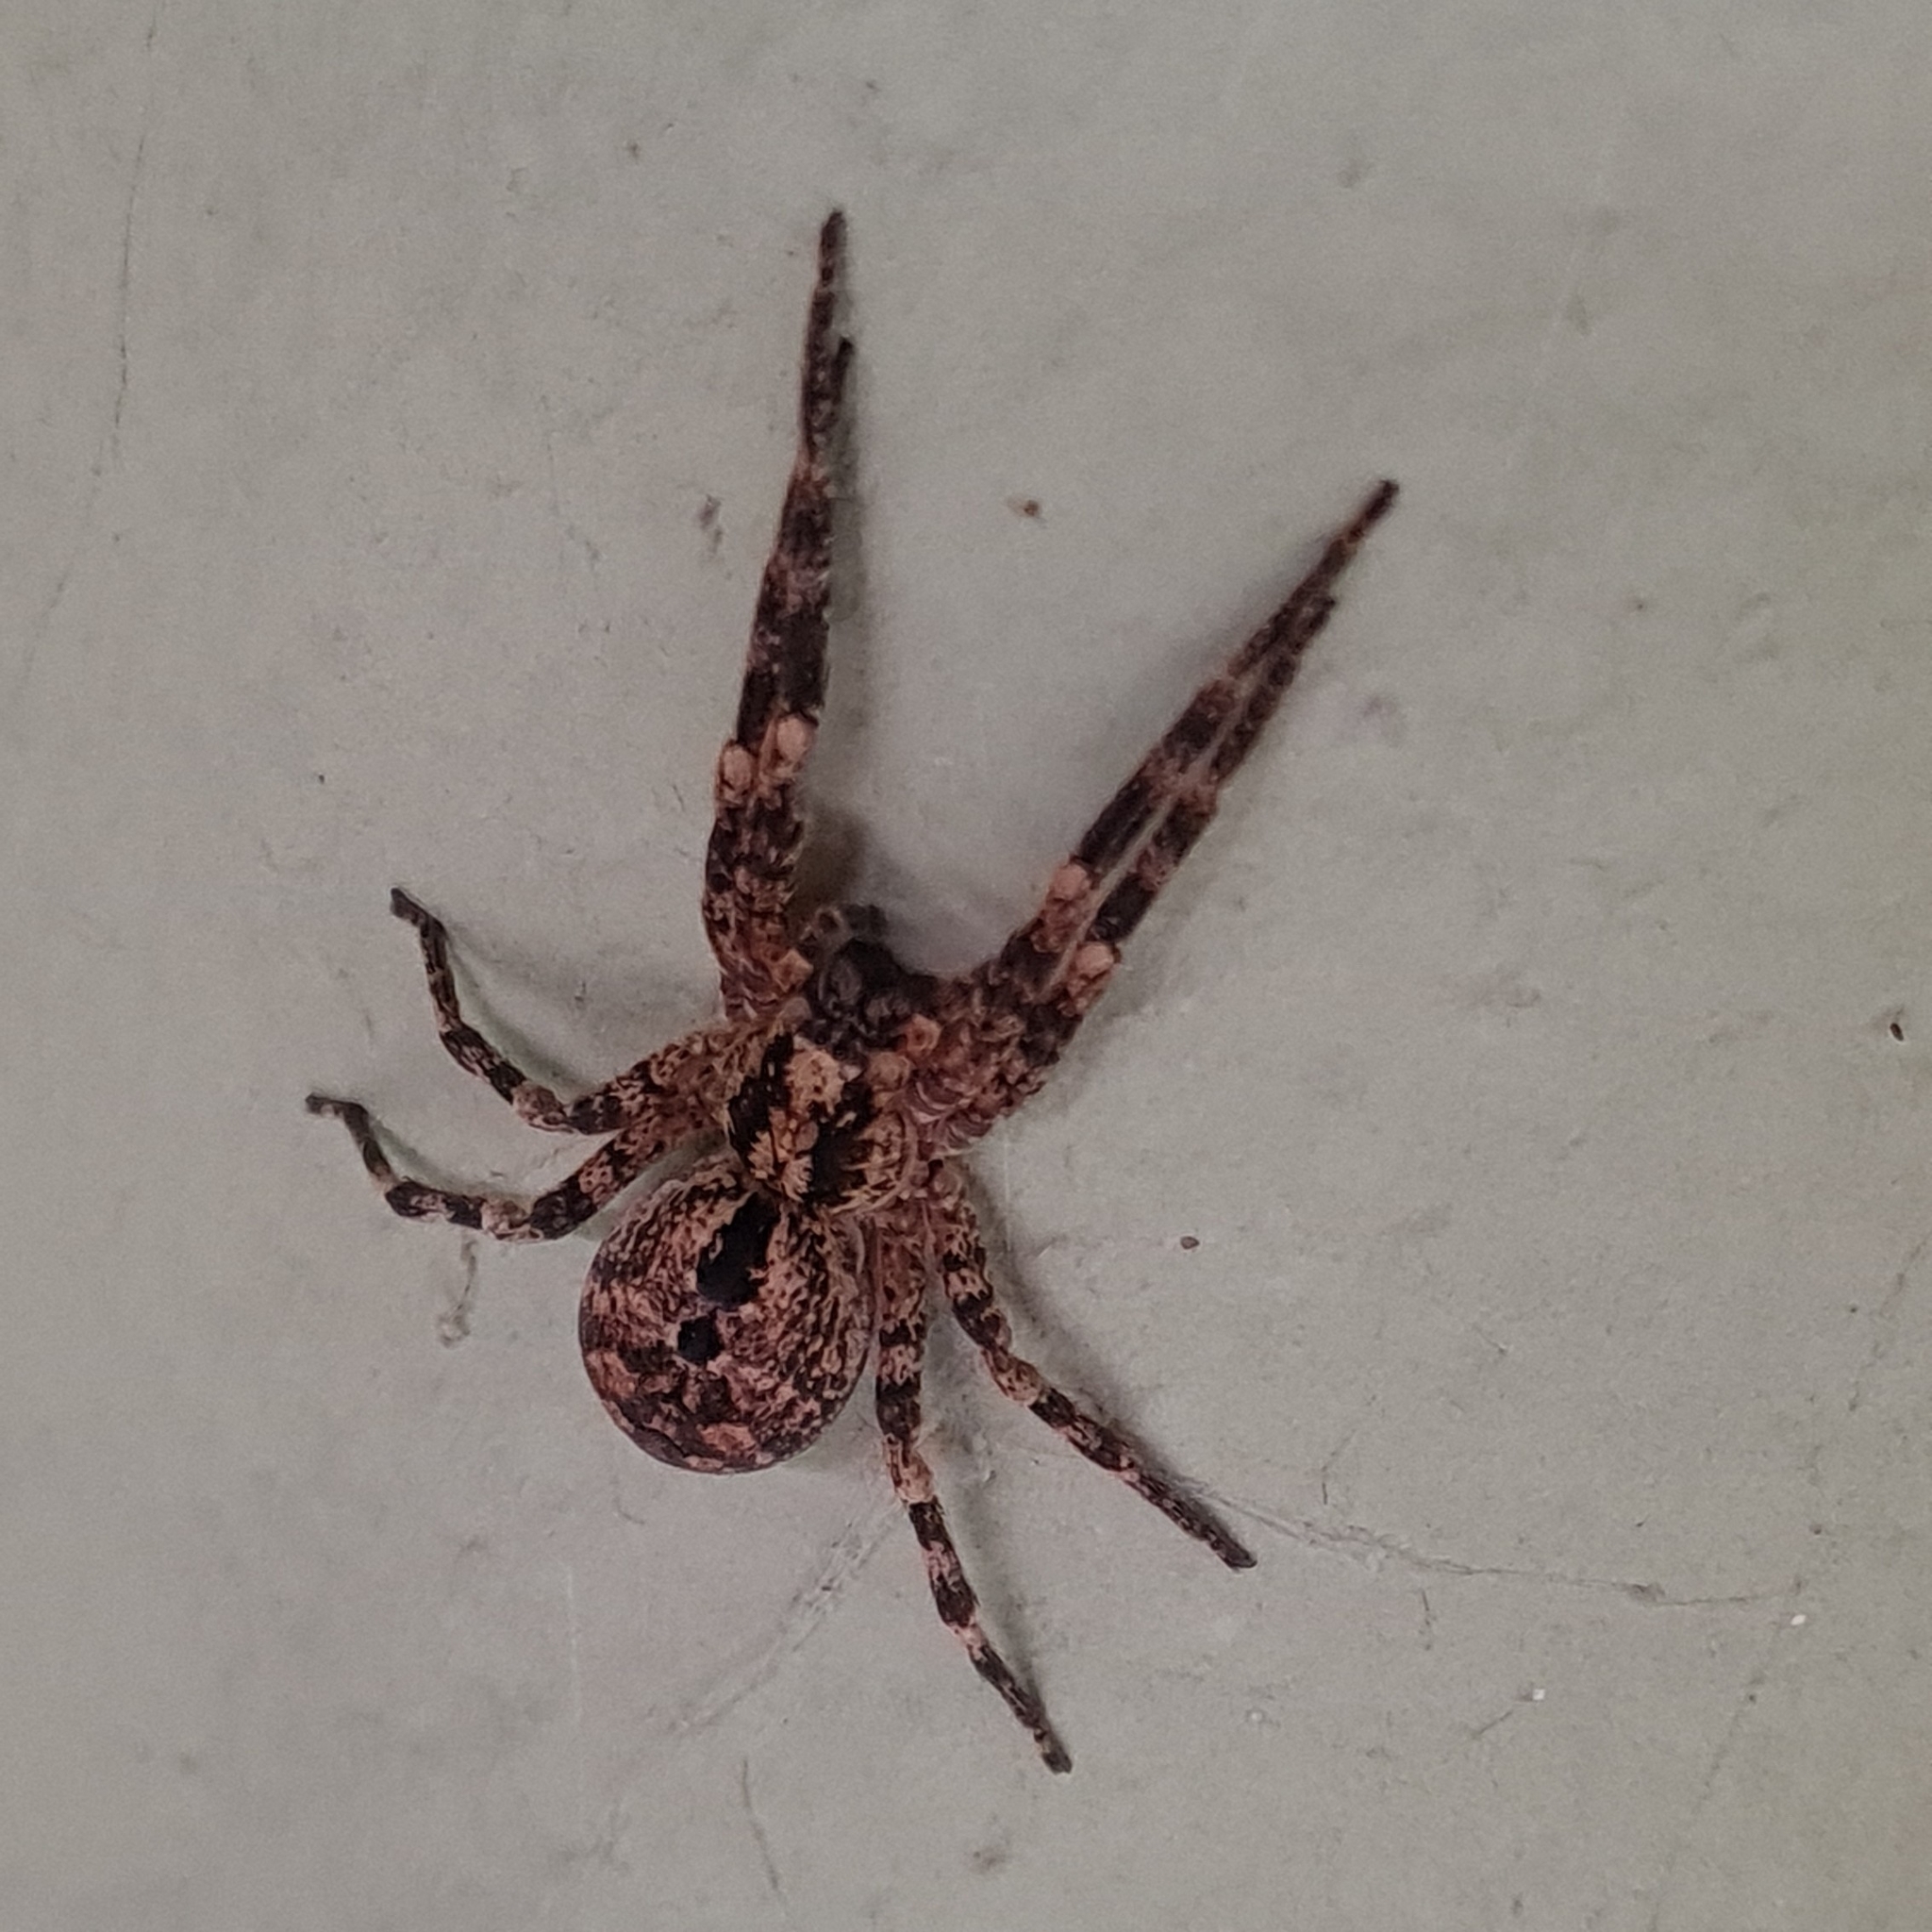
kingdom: Animalia
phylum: Arthropoda
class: Arachnida
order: Araneae
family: Zoropsidae
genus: Zoropsis
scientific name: Zoropsis spinimana
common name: Zoropsid spider
